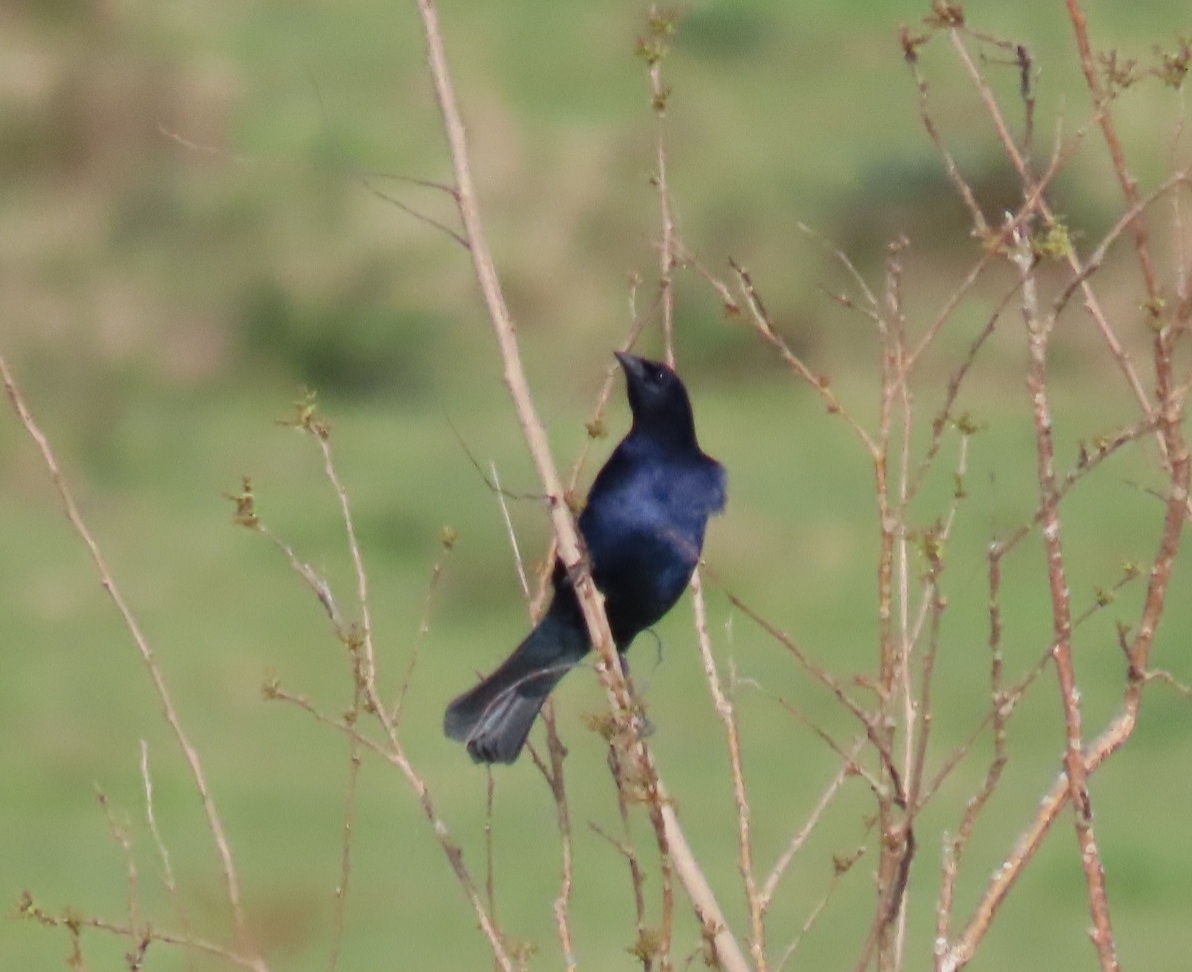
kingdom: Animalia
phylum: Chordata
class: Aves
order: Passeriformes
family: Icteridae
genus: Molothrus
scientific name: Molothrus bonariensis
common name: Shiny cowbird
